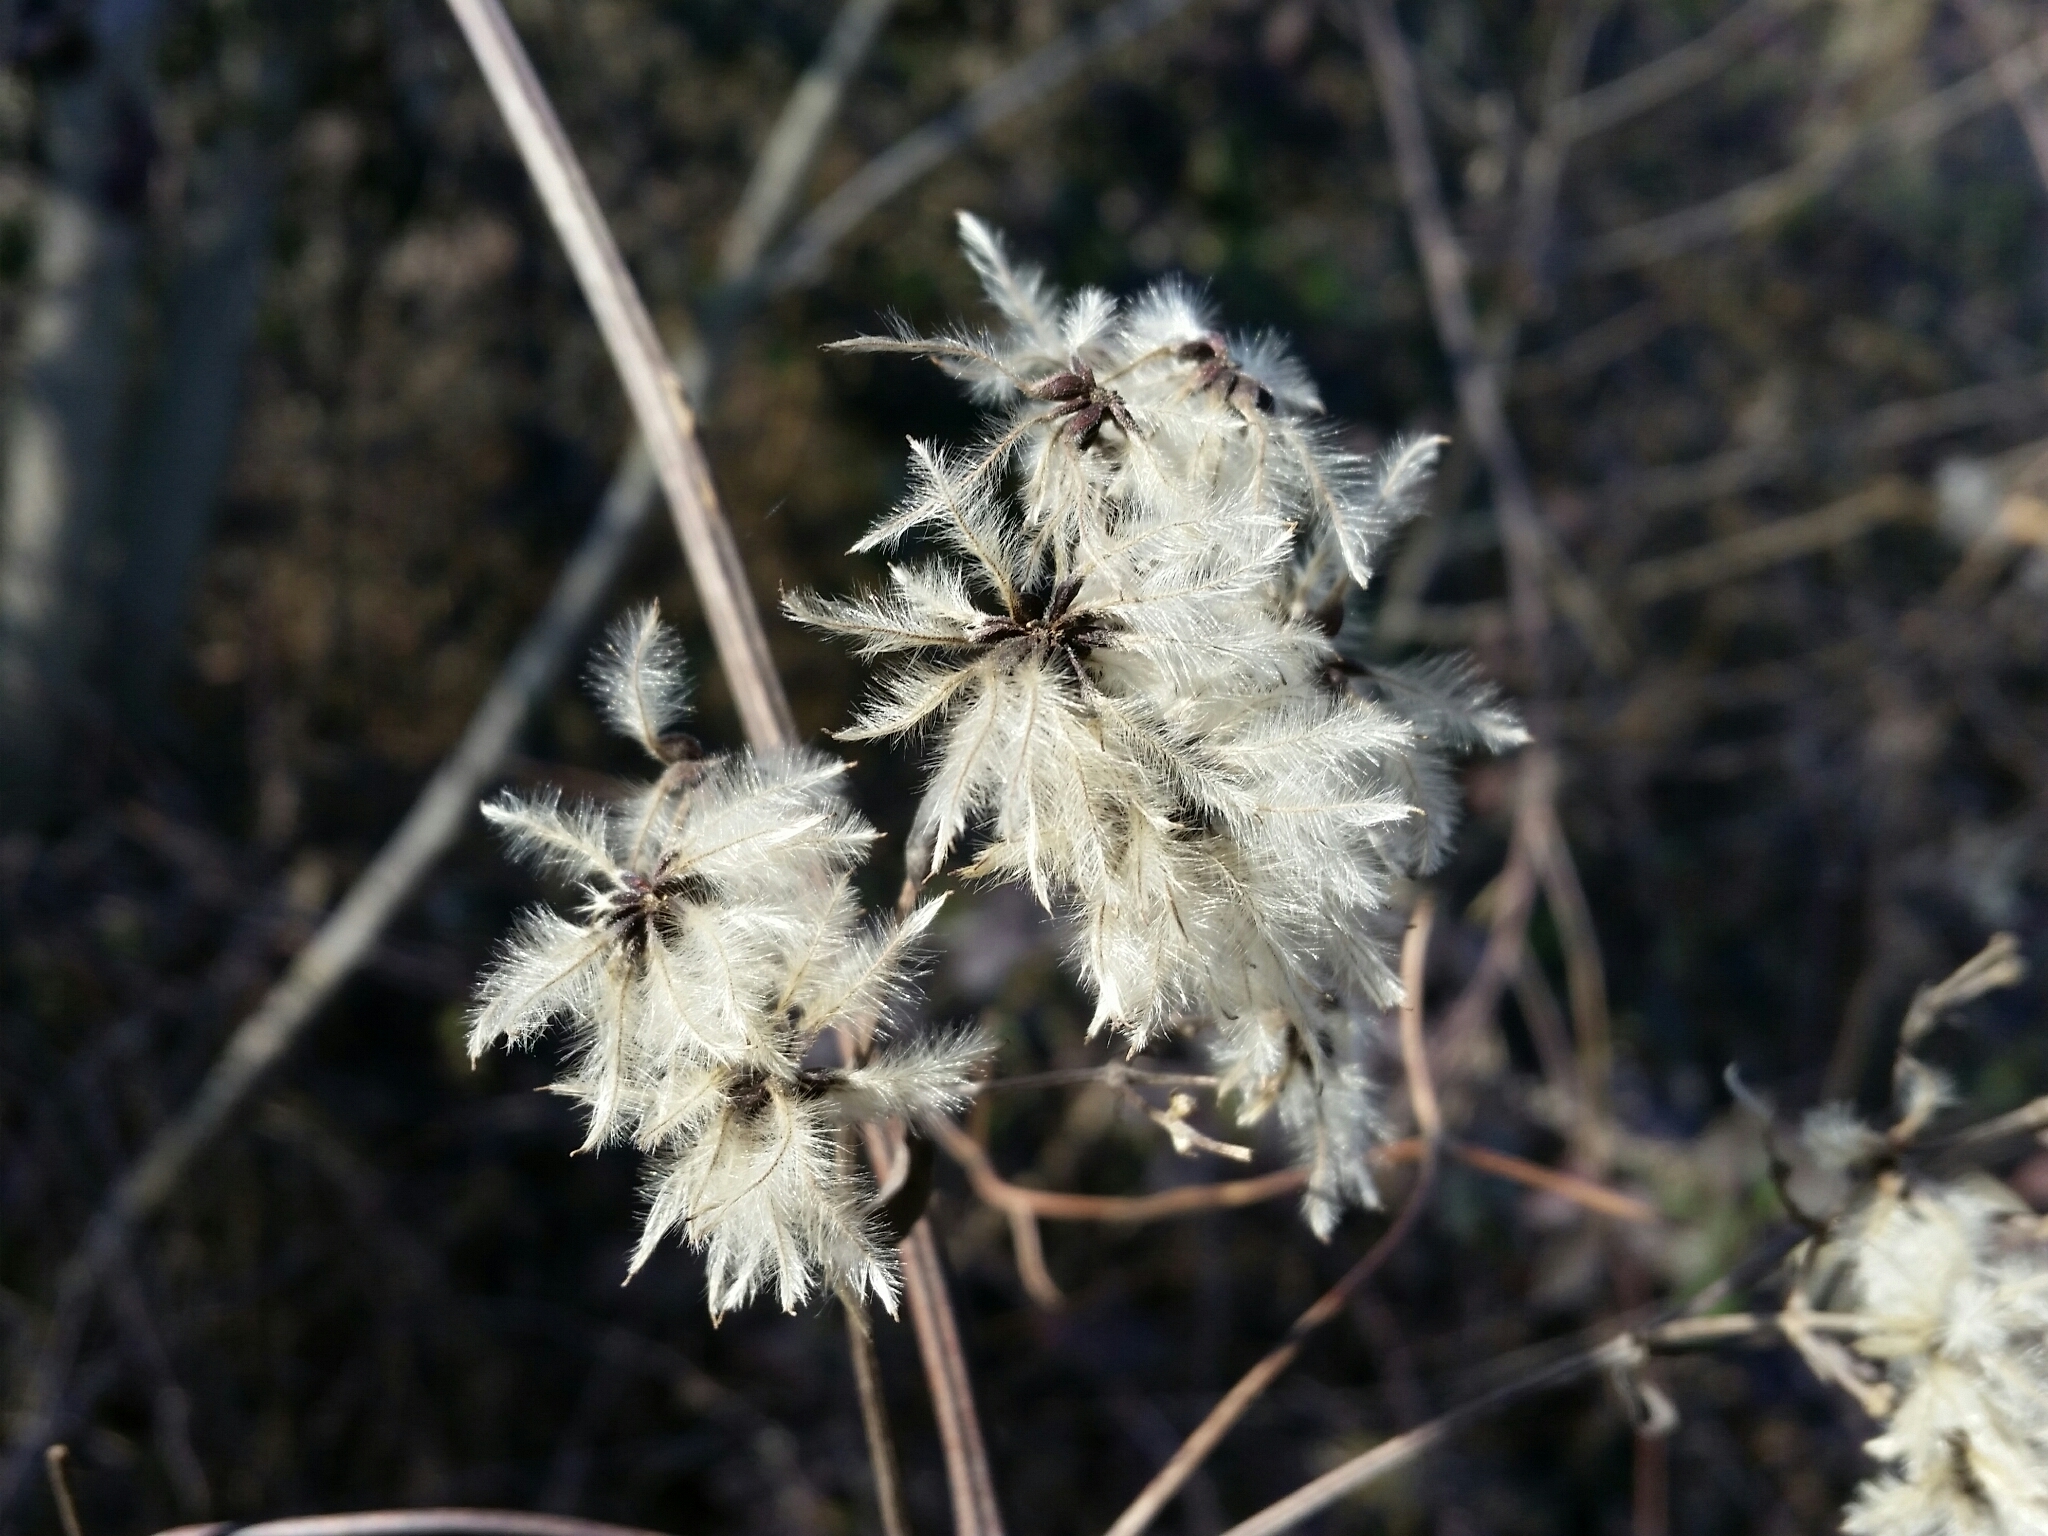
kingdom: Plantae
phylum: Tracheophyta
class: Magnoliopsida
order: Ranunculales
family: Ranunculaceae
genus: Clematis
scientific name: Clematis vitalba
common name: Evergreen clematis
